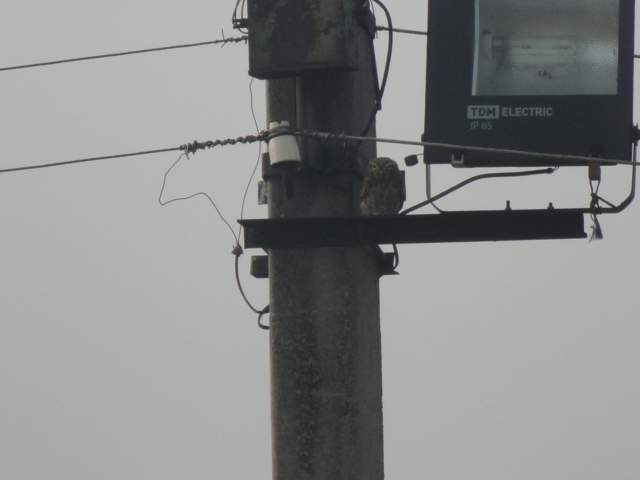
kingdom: Animalia
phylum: Chordata
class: Aves
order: Strigiformes
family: Strigidae
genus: Athene
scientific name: Athene noctua
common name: Little owl
